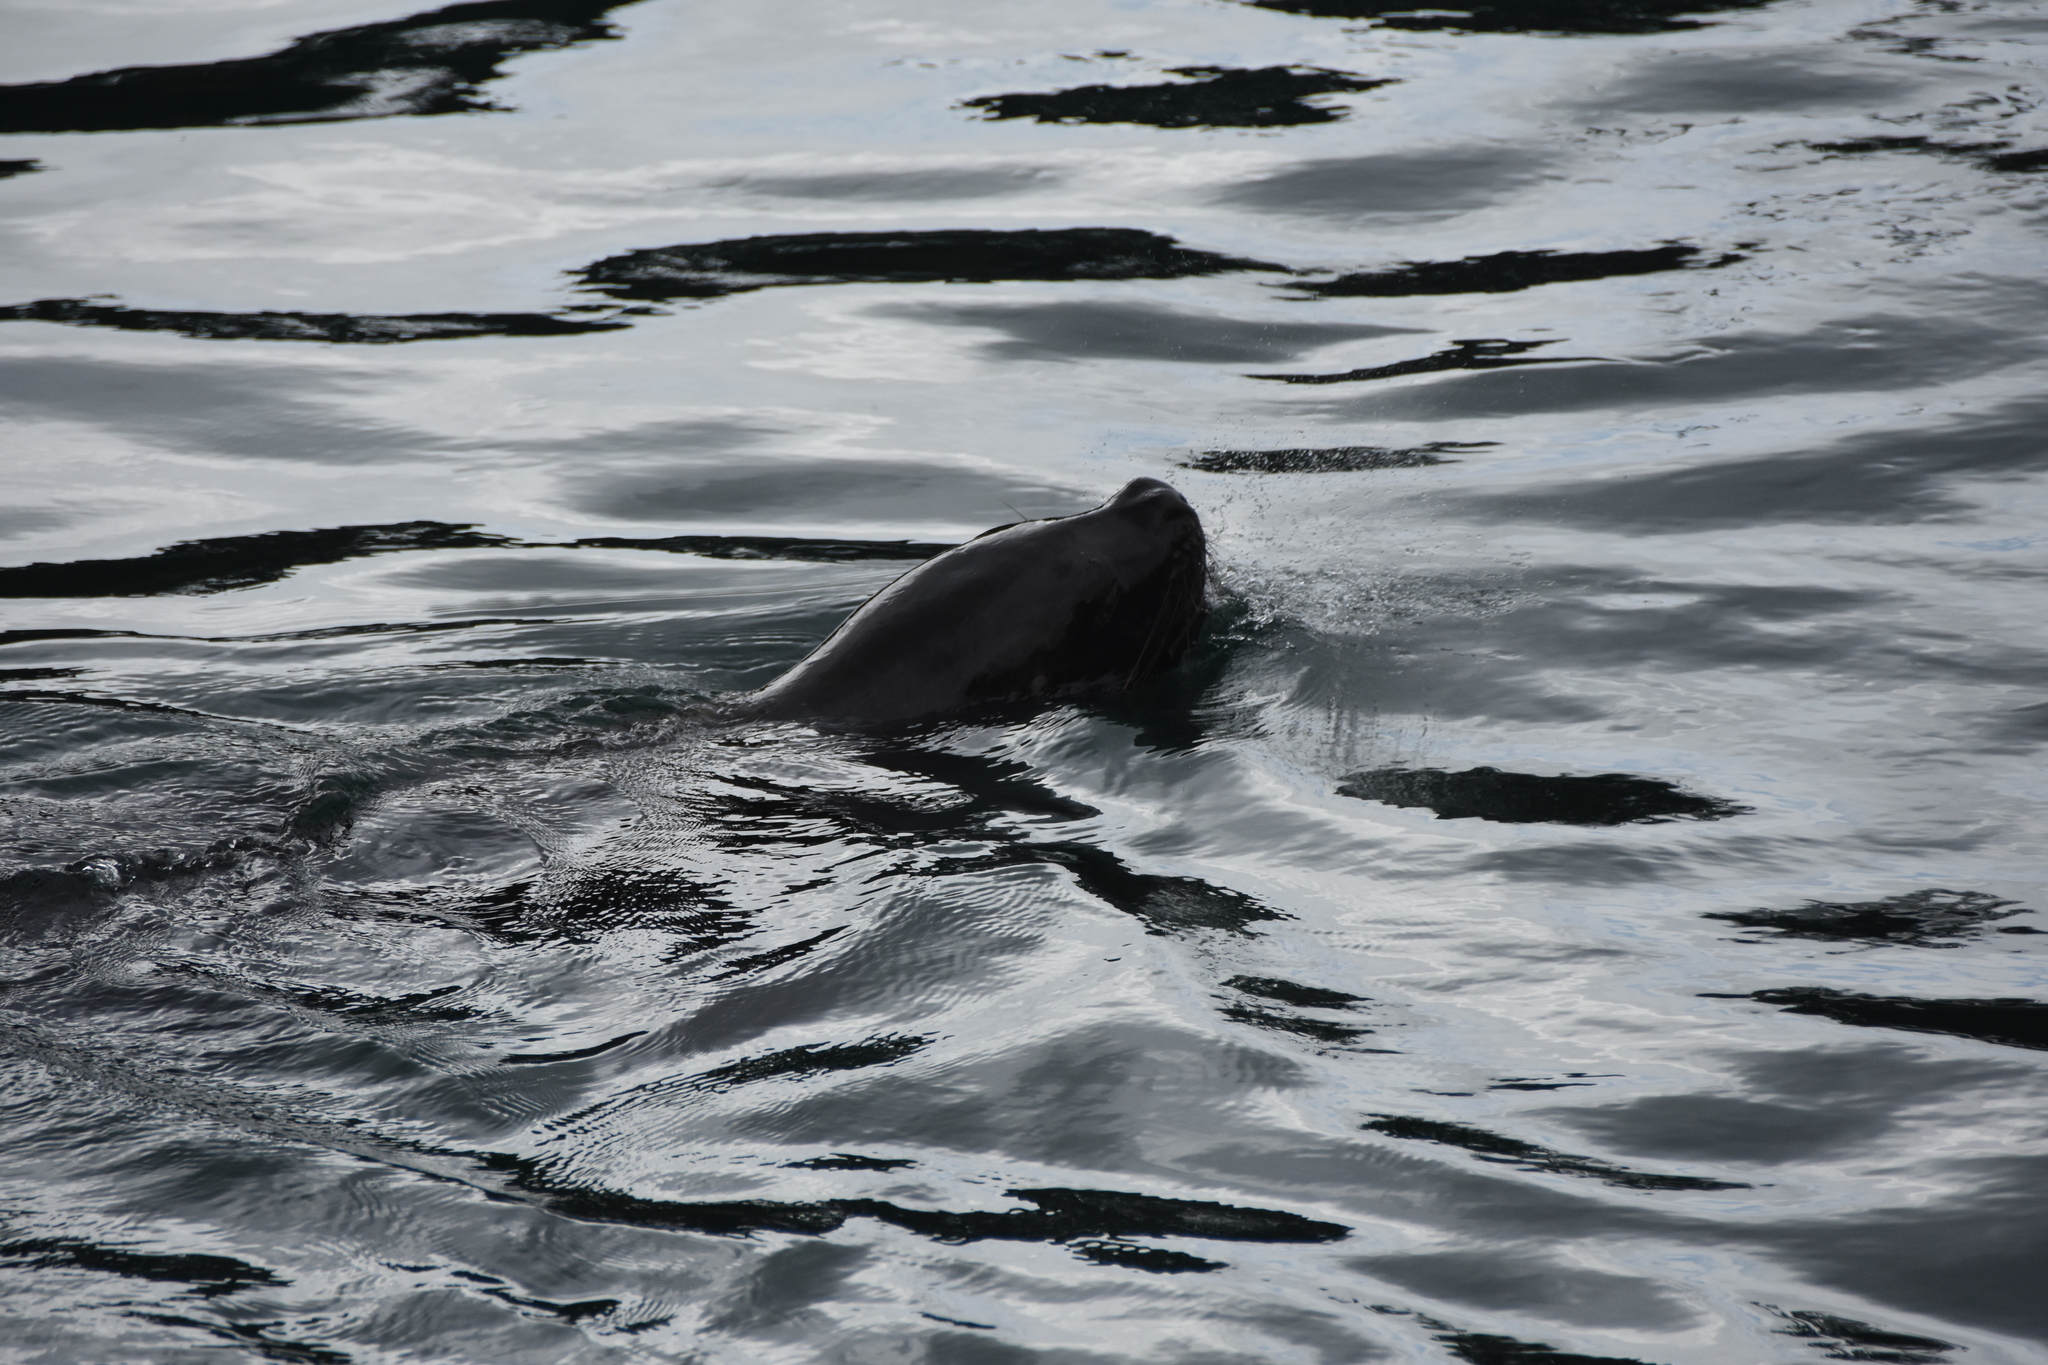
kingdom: Animalia
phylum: Chordata
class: Mammalia
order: Carnivora
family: Otariidae
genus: Otaria
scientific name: Otaria byronia
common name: South american sea lion
